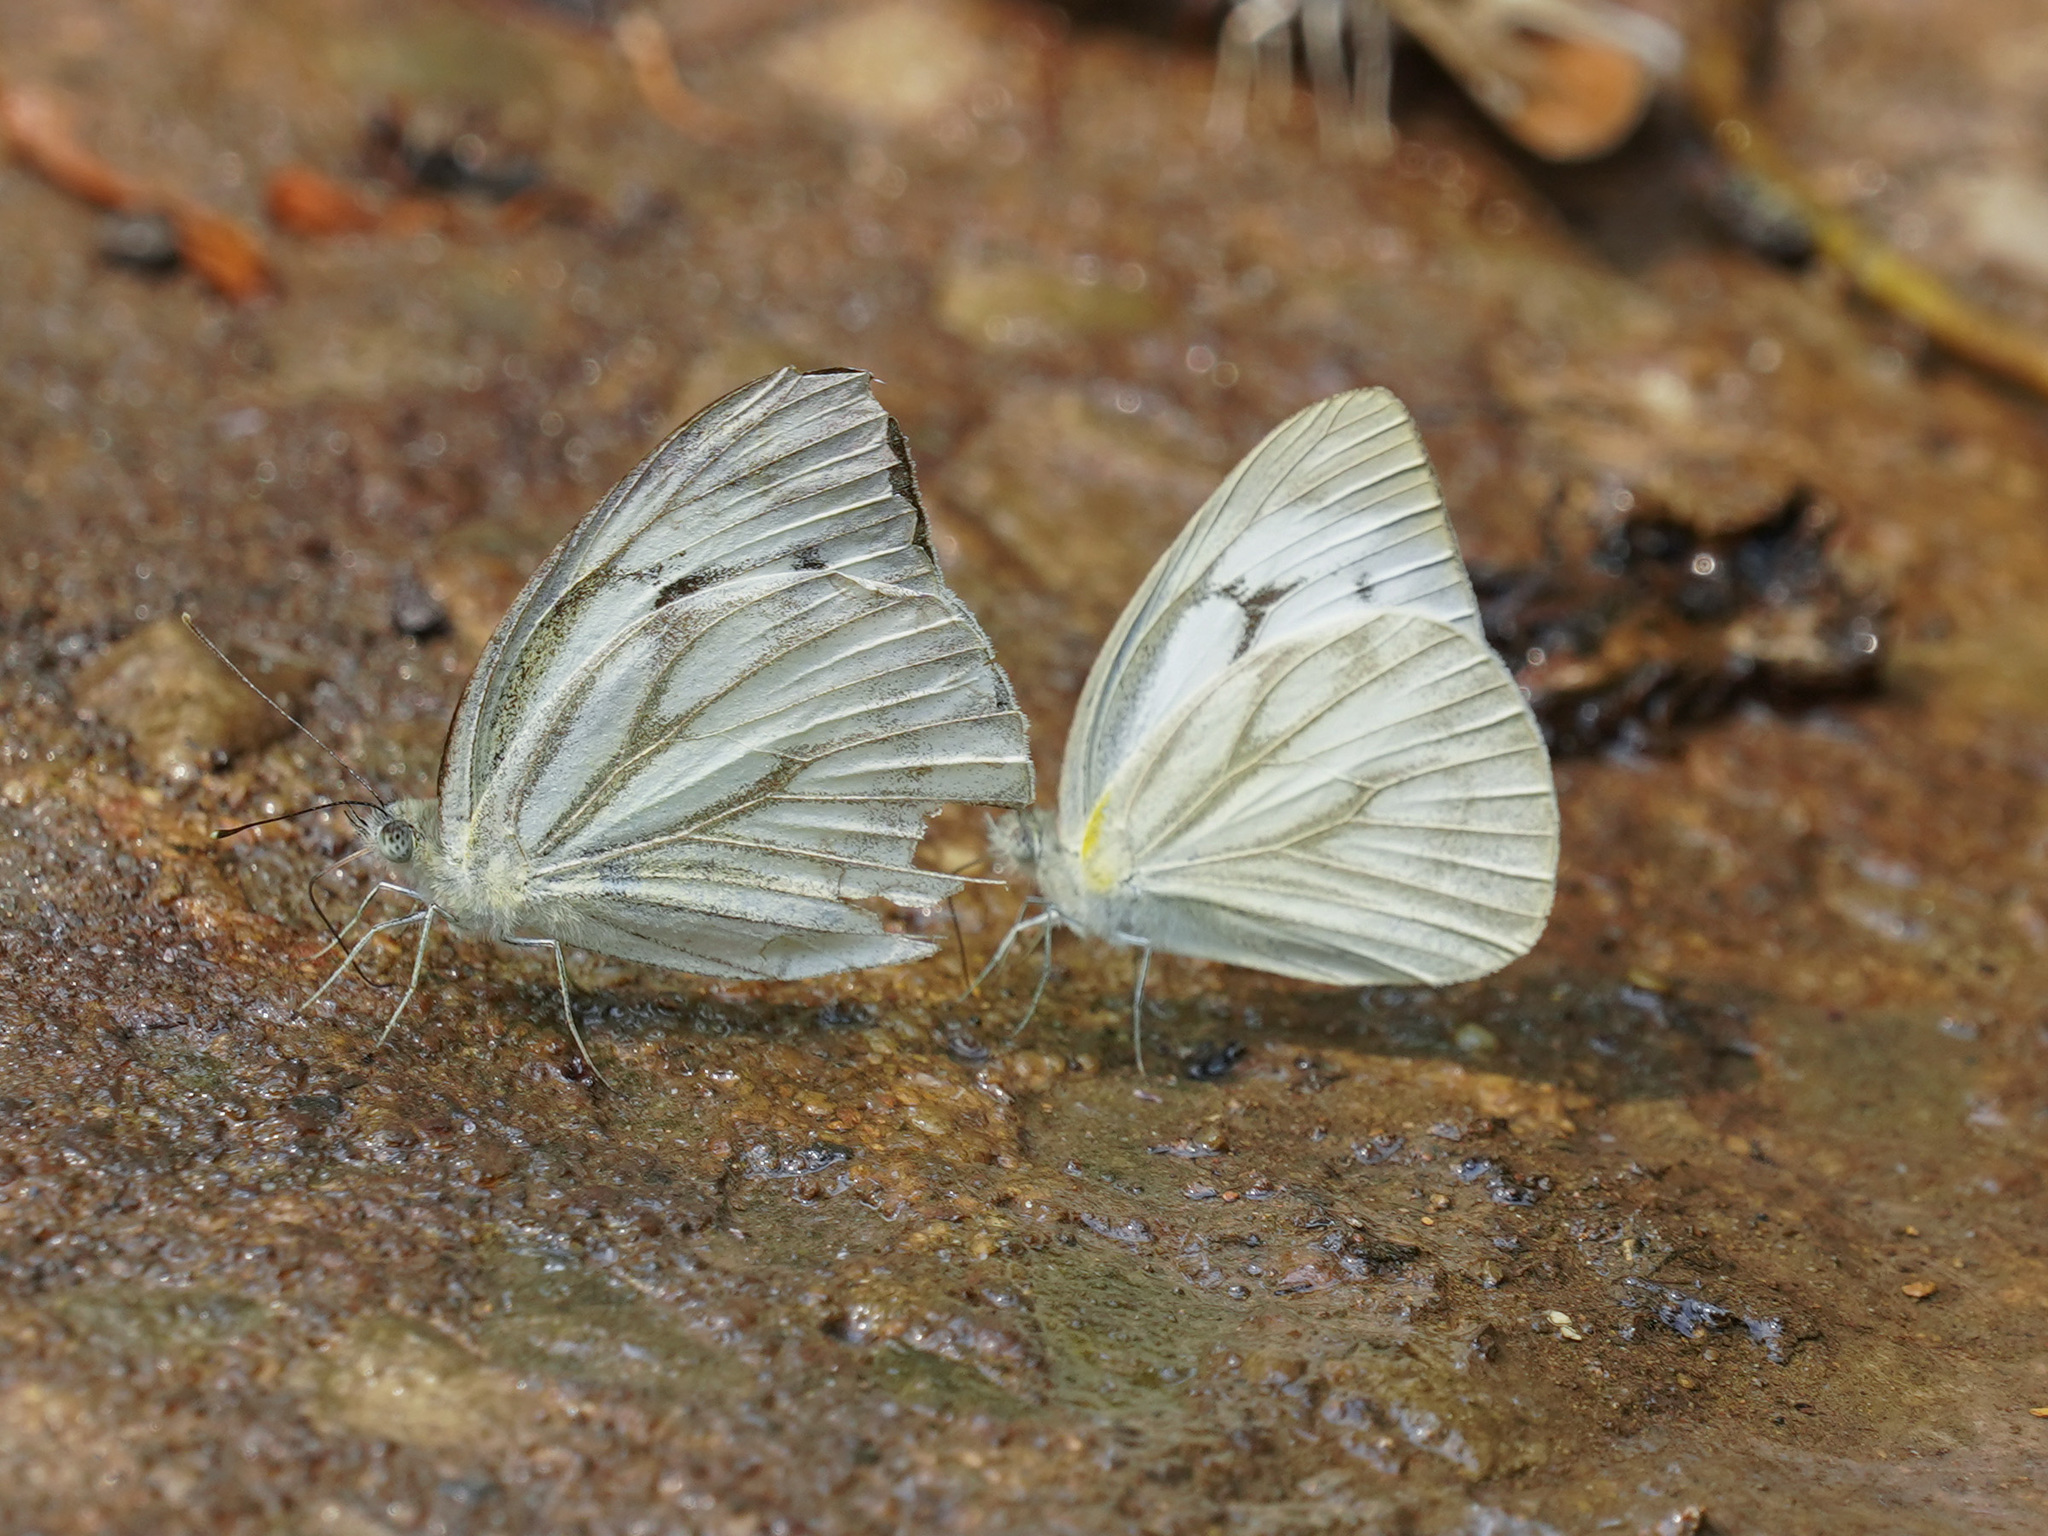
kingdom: Animalia
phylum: Arthropoda
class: Insecta
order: Lepidoptera
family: Pieridae
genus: Cepora
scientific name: Cepora nerissa
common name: Common gull
